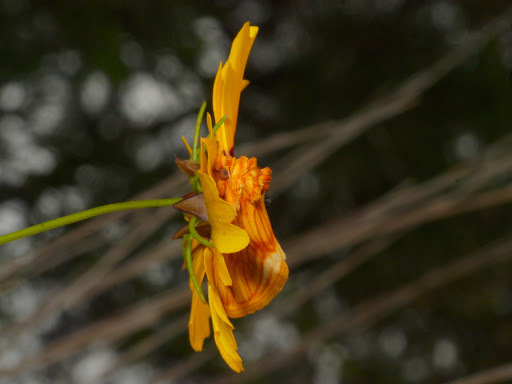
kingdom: Plantae
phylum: Tracheophyta
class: Magnoliopsida
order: Asterales
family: Asteraceae
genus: Coreopsis
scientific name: Coreopsis basalis
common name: Golden-mane coreopsis
